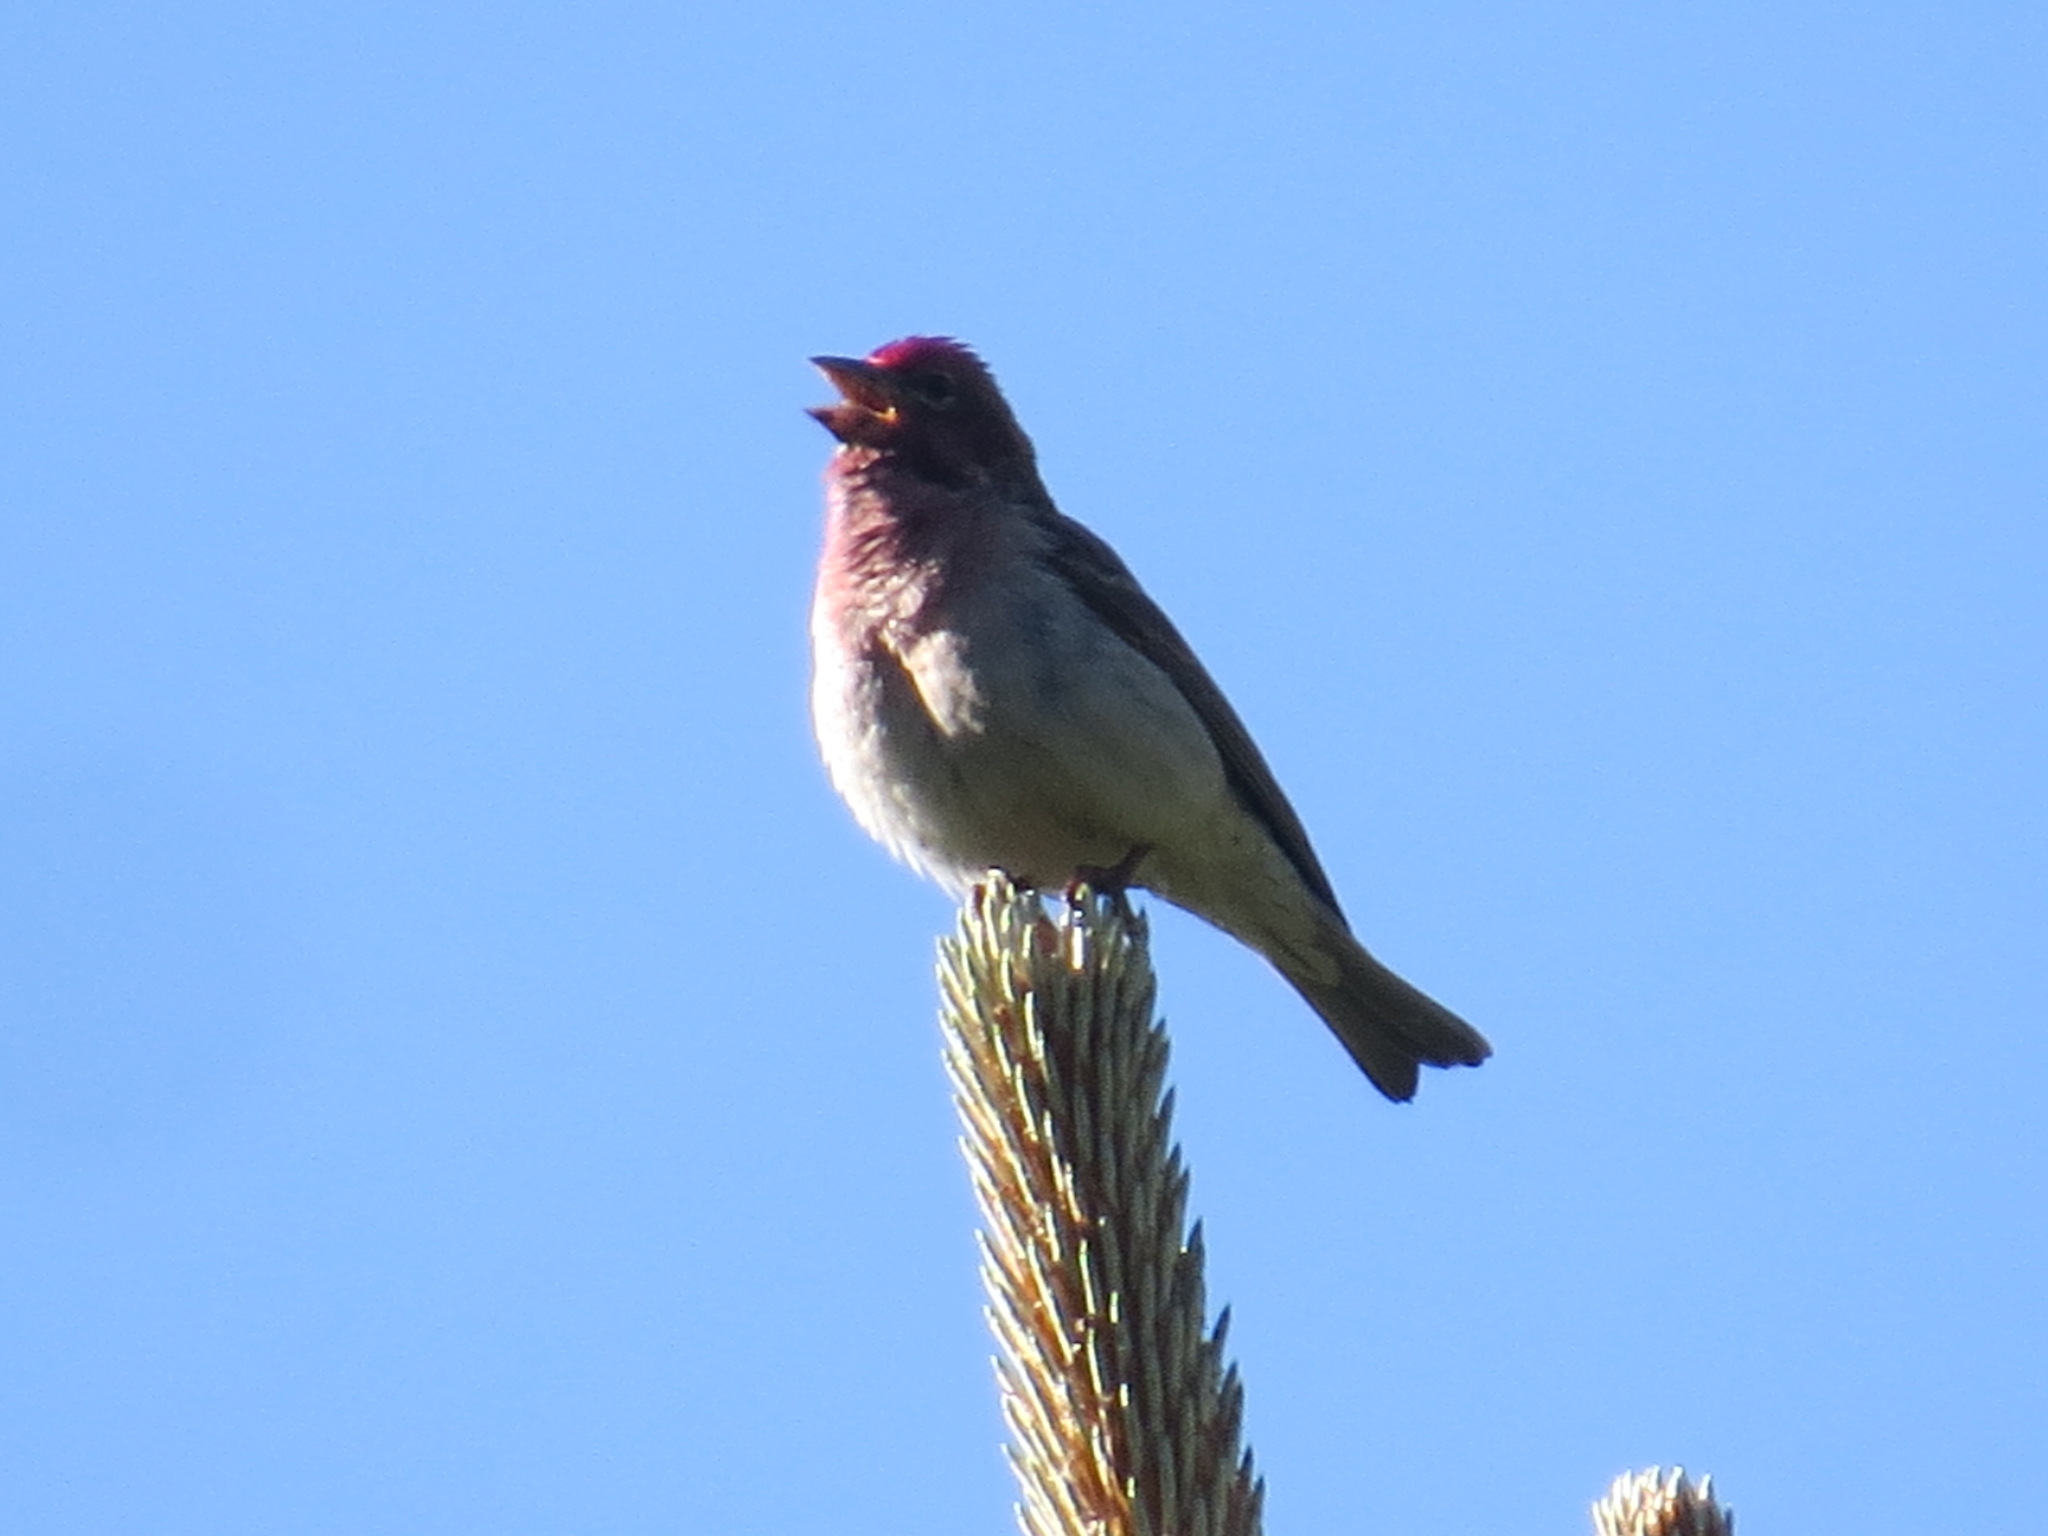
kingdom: Animalia
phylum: Chordata
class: Aves
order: Passeriformes
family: Fringillidae
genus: Haemorhous
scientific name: Haemorhous cassinii
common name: Cassin's finch
